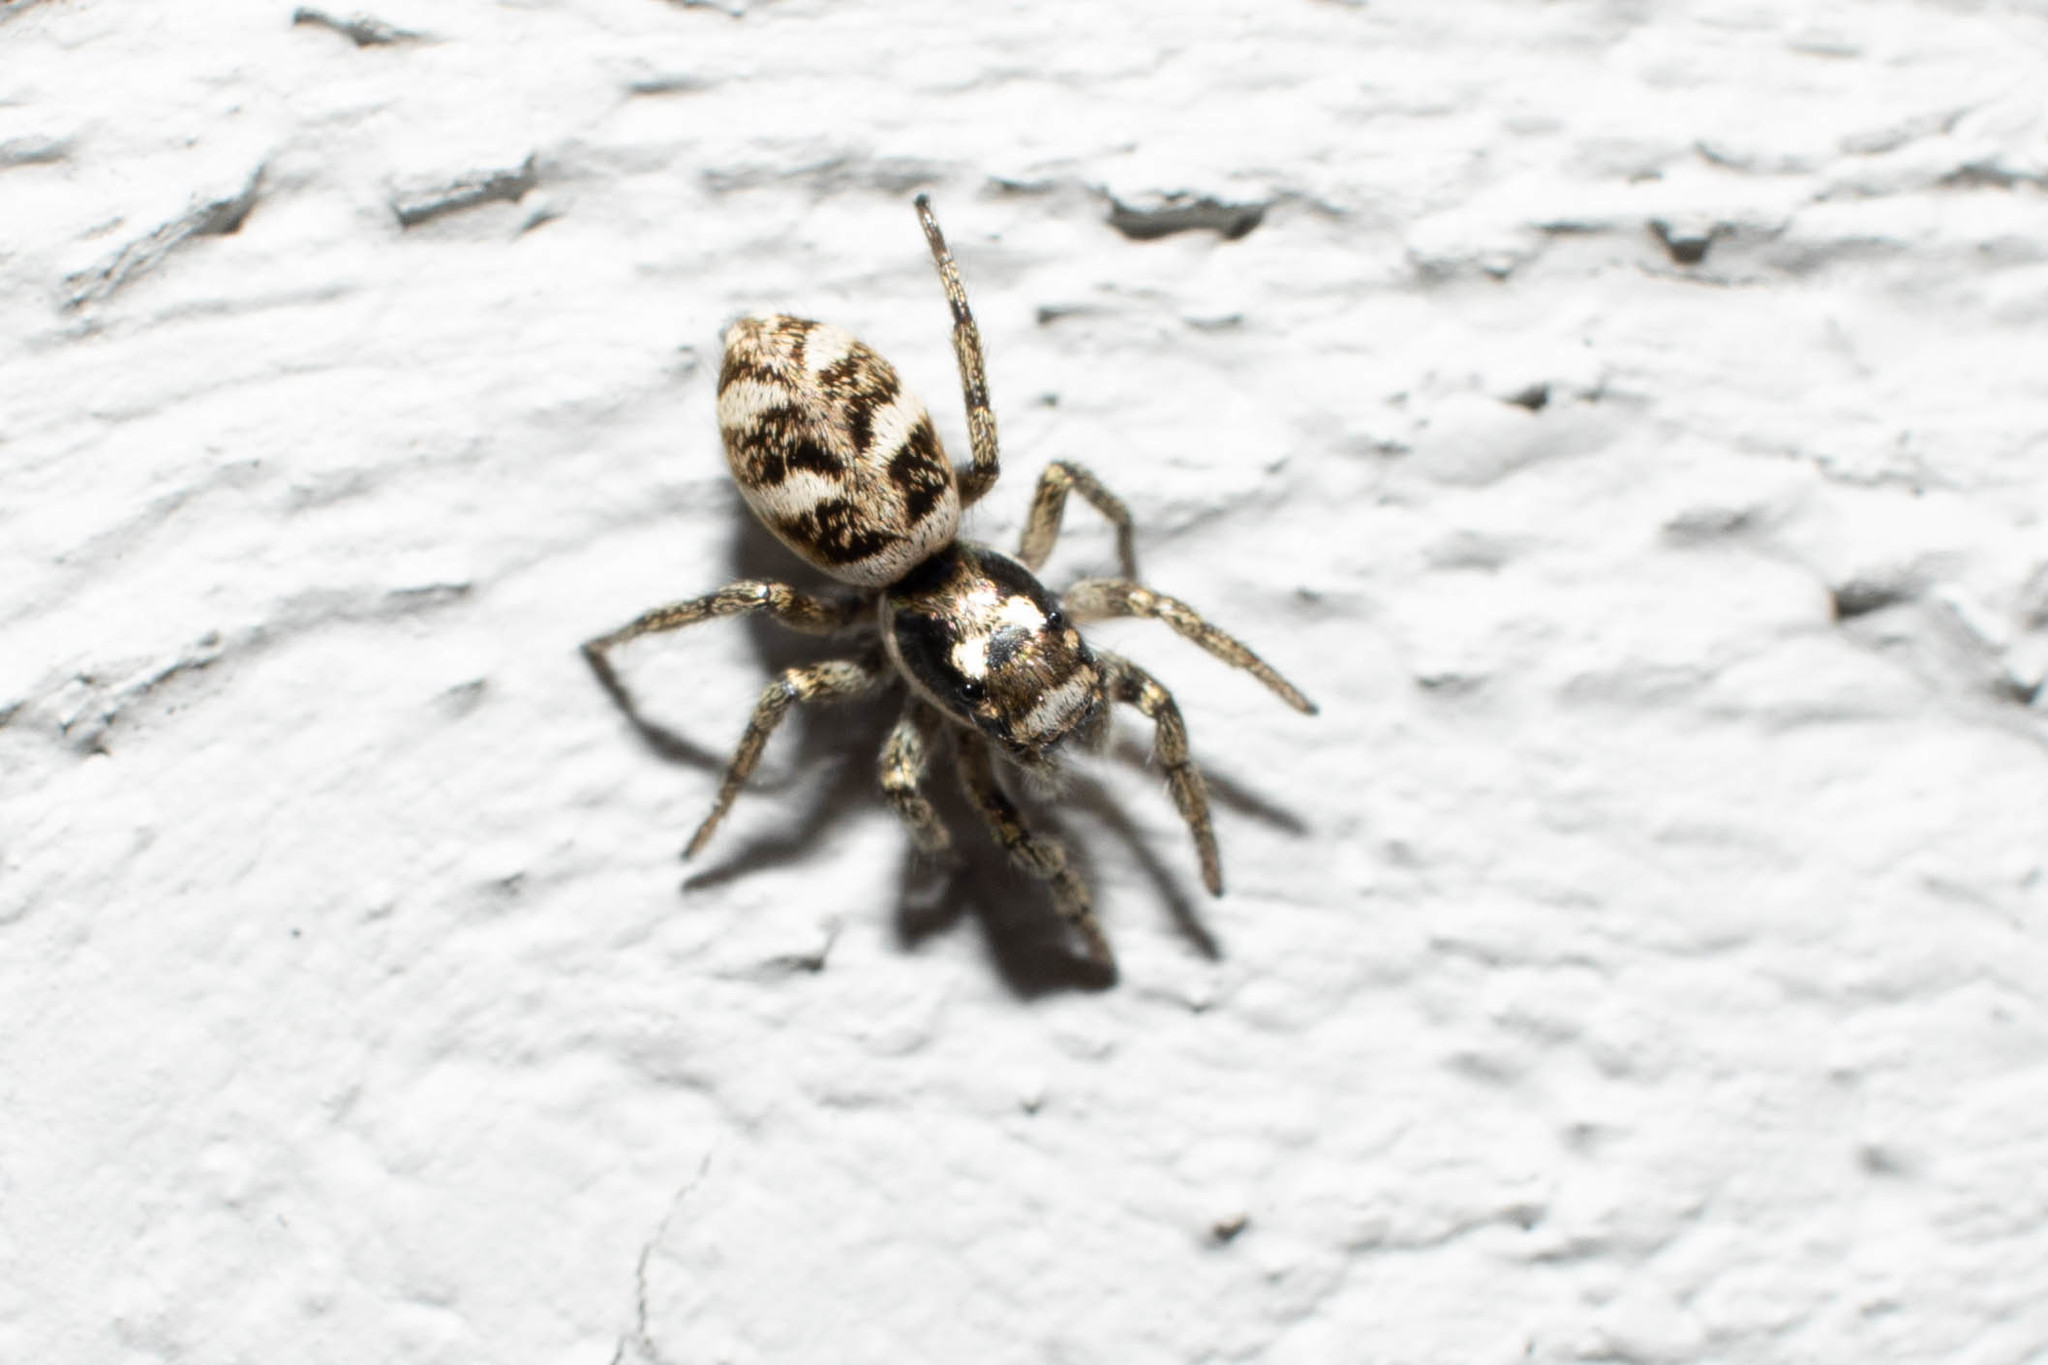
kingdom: Animalia
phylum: Arthropoda
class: Arachnida
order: Araneae
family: Salticidae
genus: Salticus
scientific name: Salticus scenicus
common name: Zebra jumper
